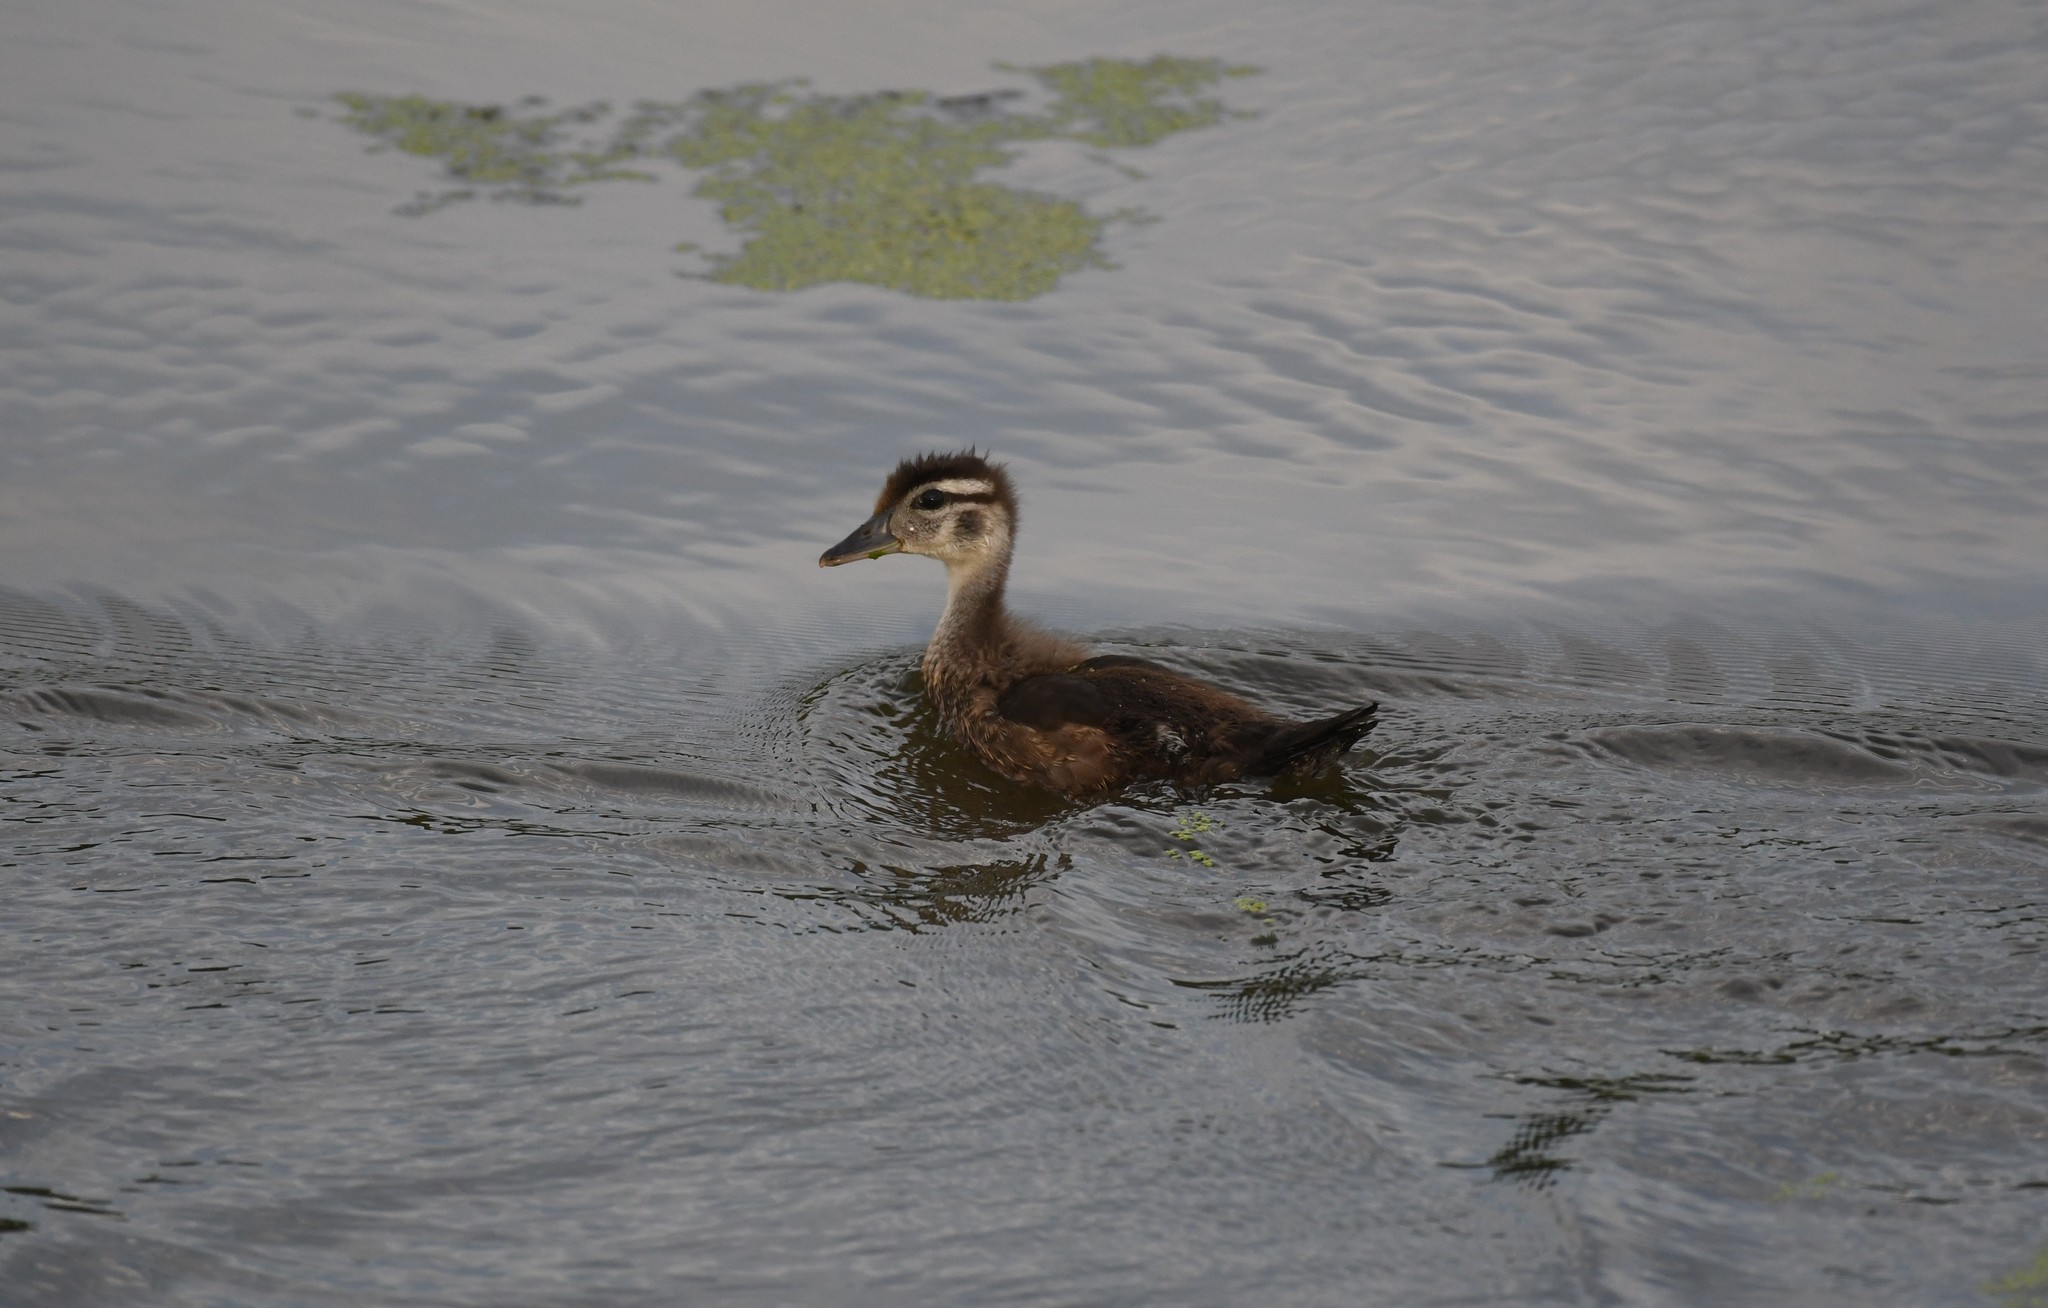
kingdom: Animalia
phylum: Chordata
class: Aves
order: Anseriformes
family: Anatidae
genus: Aix
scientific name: Aix sponsa
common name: Wood duck
